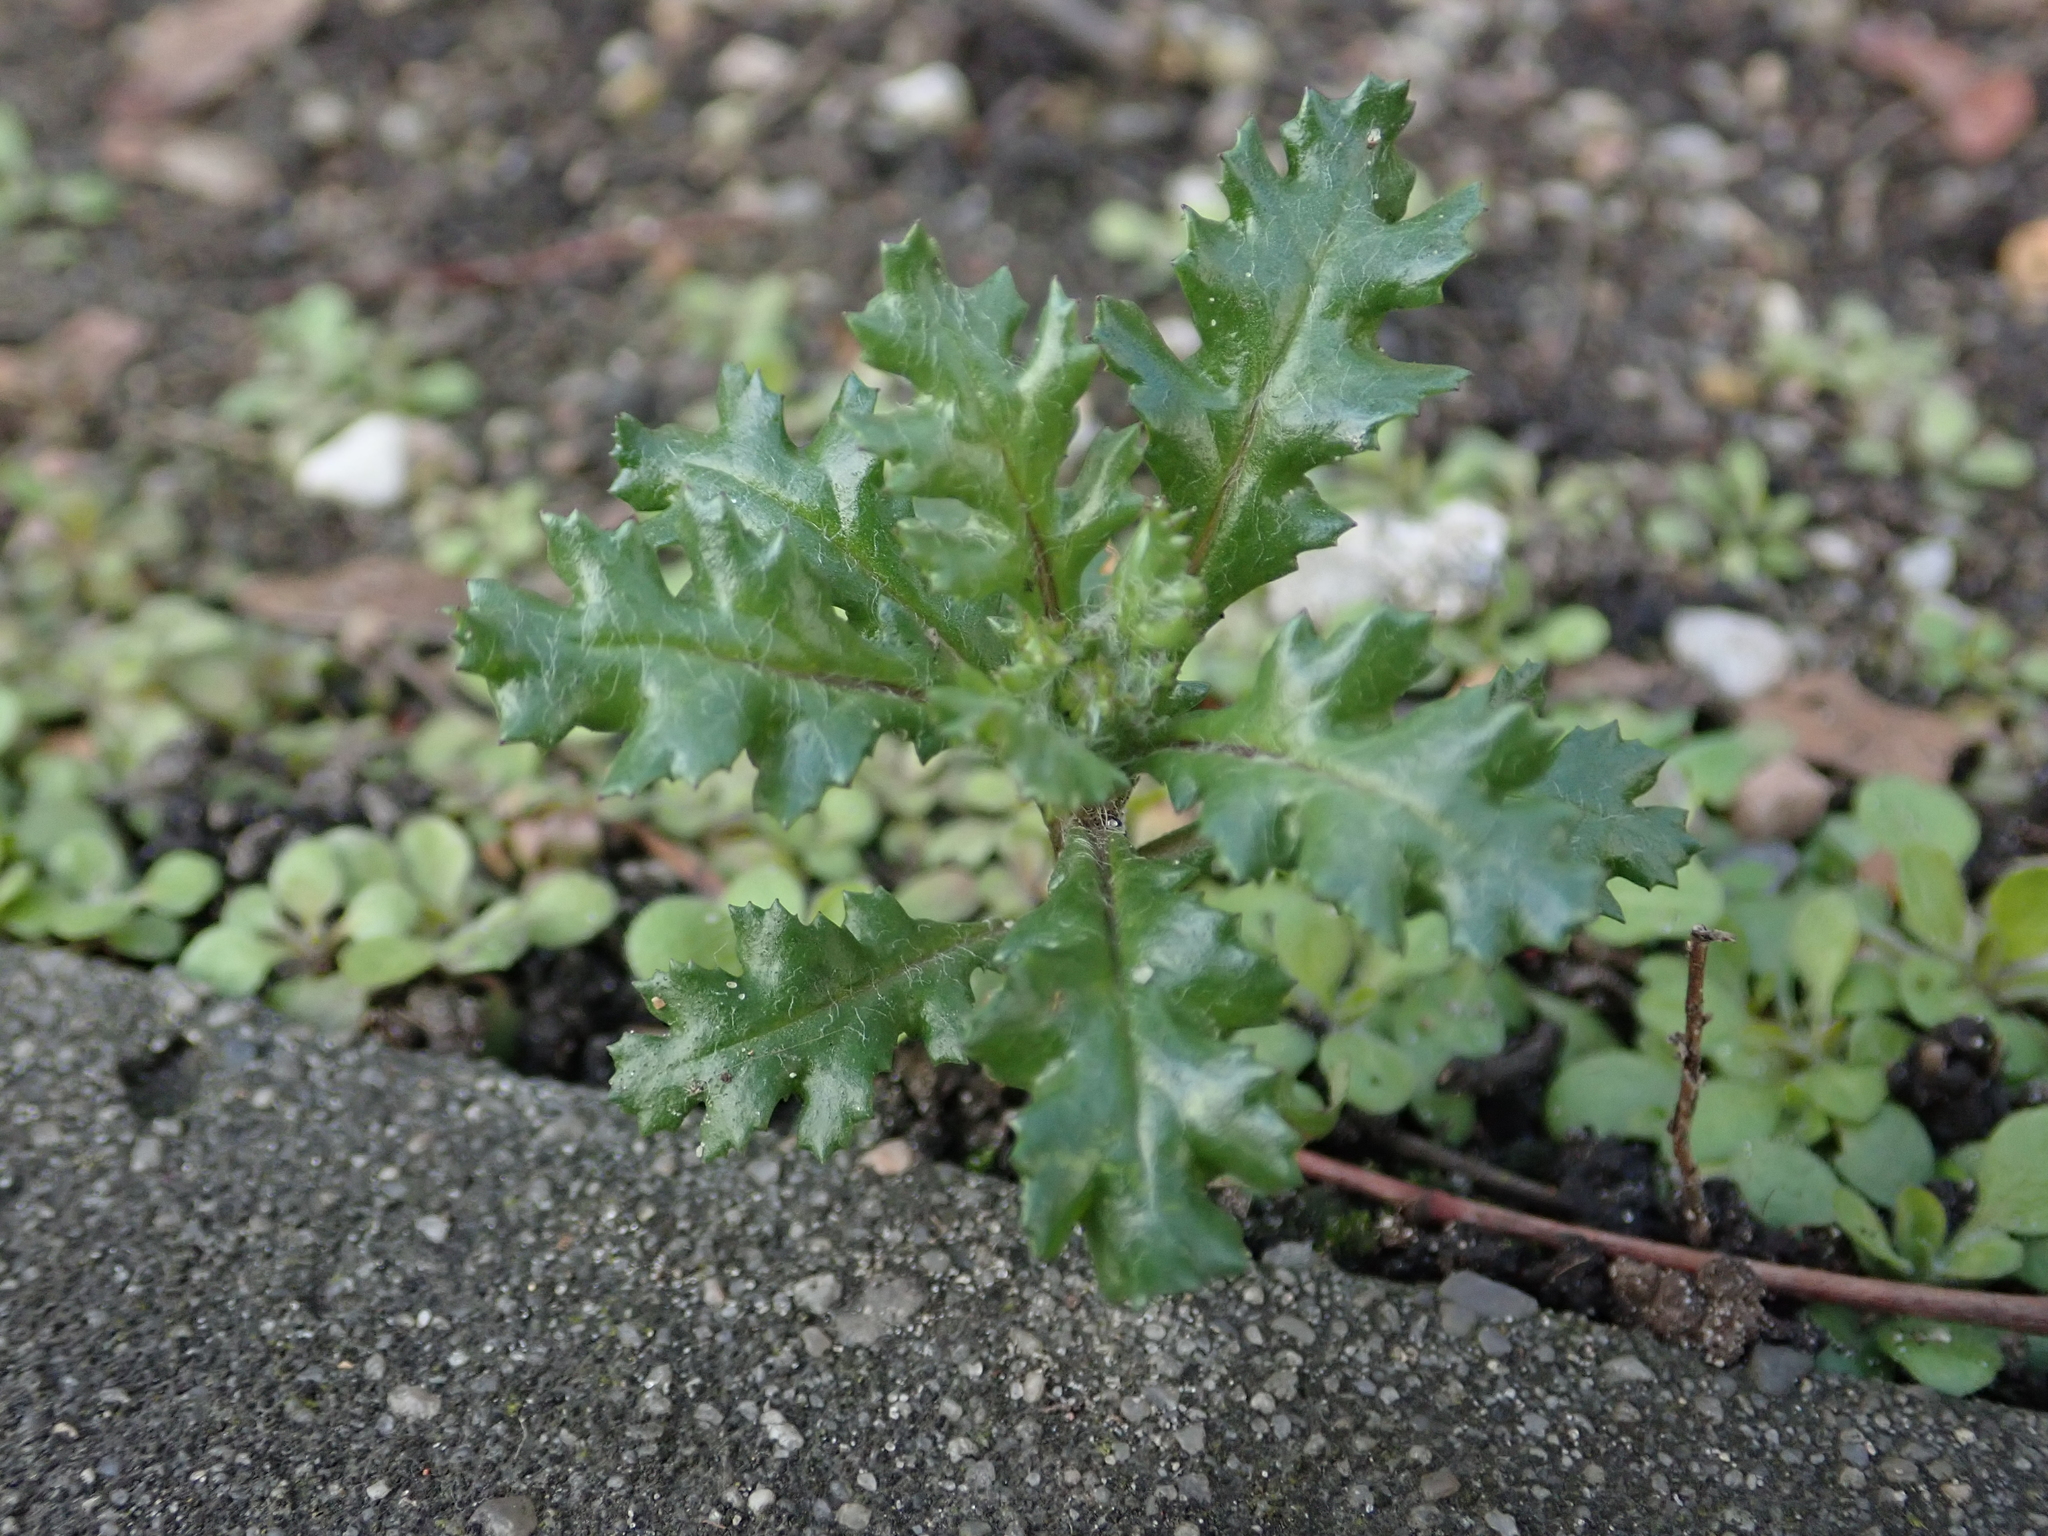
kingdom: Plantae
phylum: Tracheophyta
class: Magnoliopsida
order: Asterales
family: Asteraceae
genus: Senecio
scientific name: Senecio vulgaris
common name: Old-man-in-the-spring
